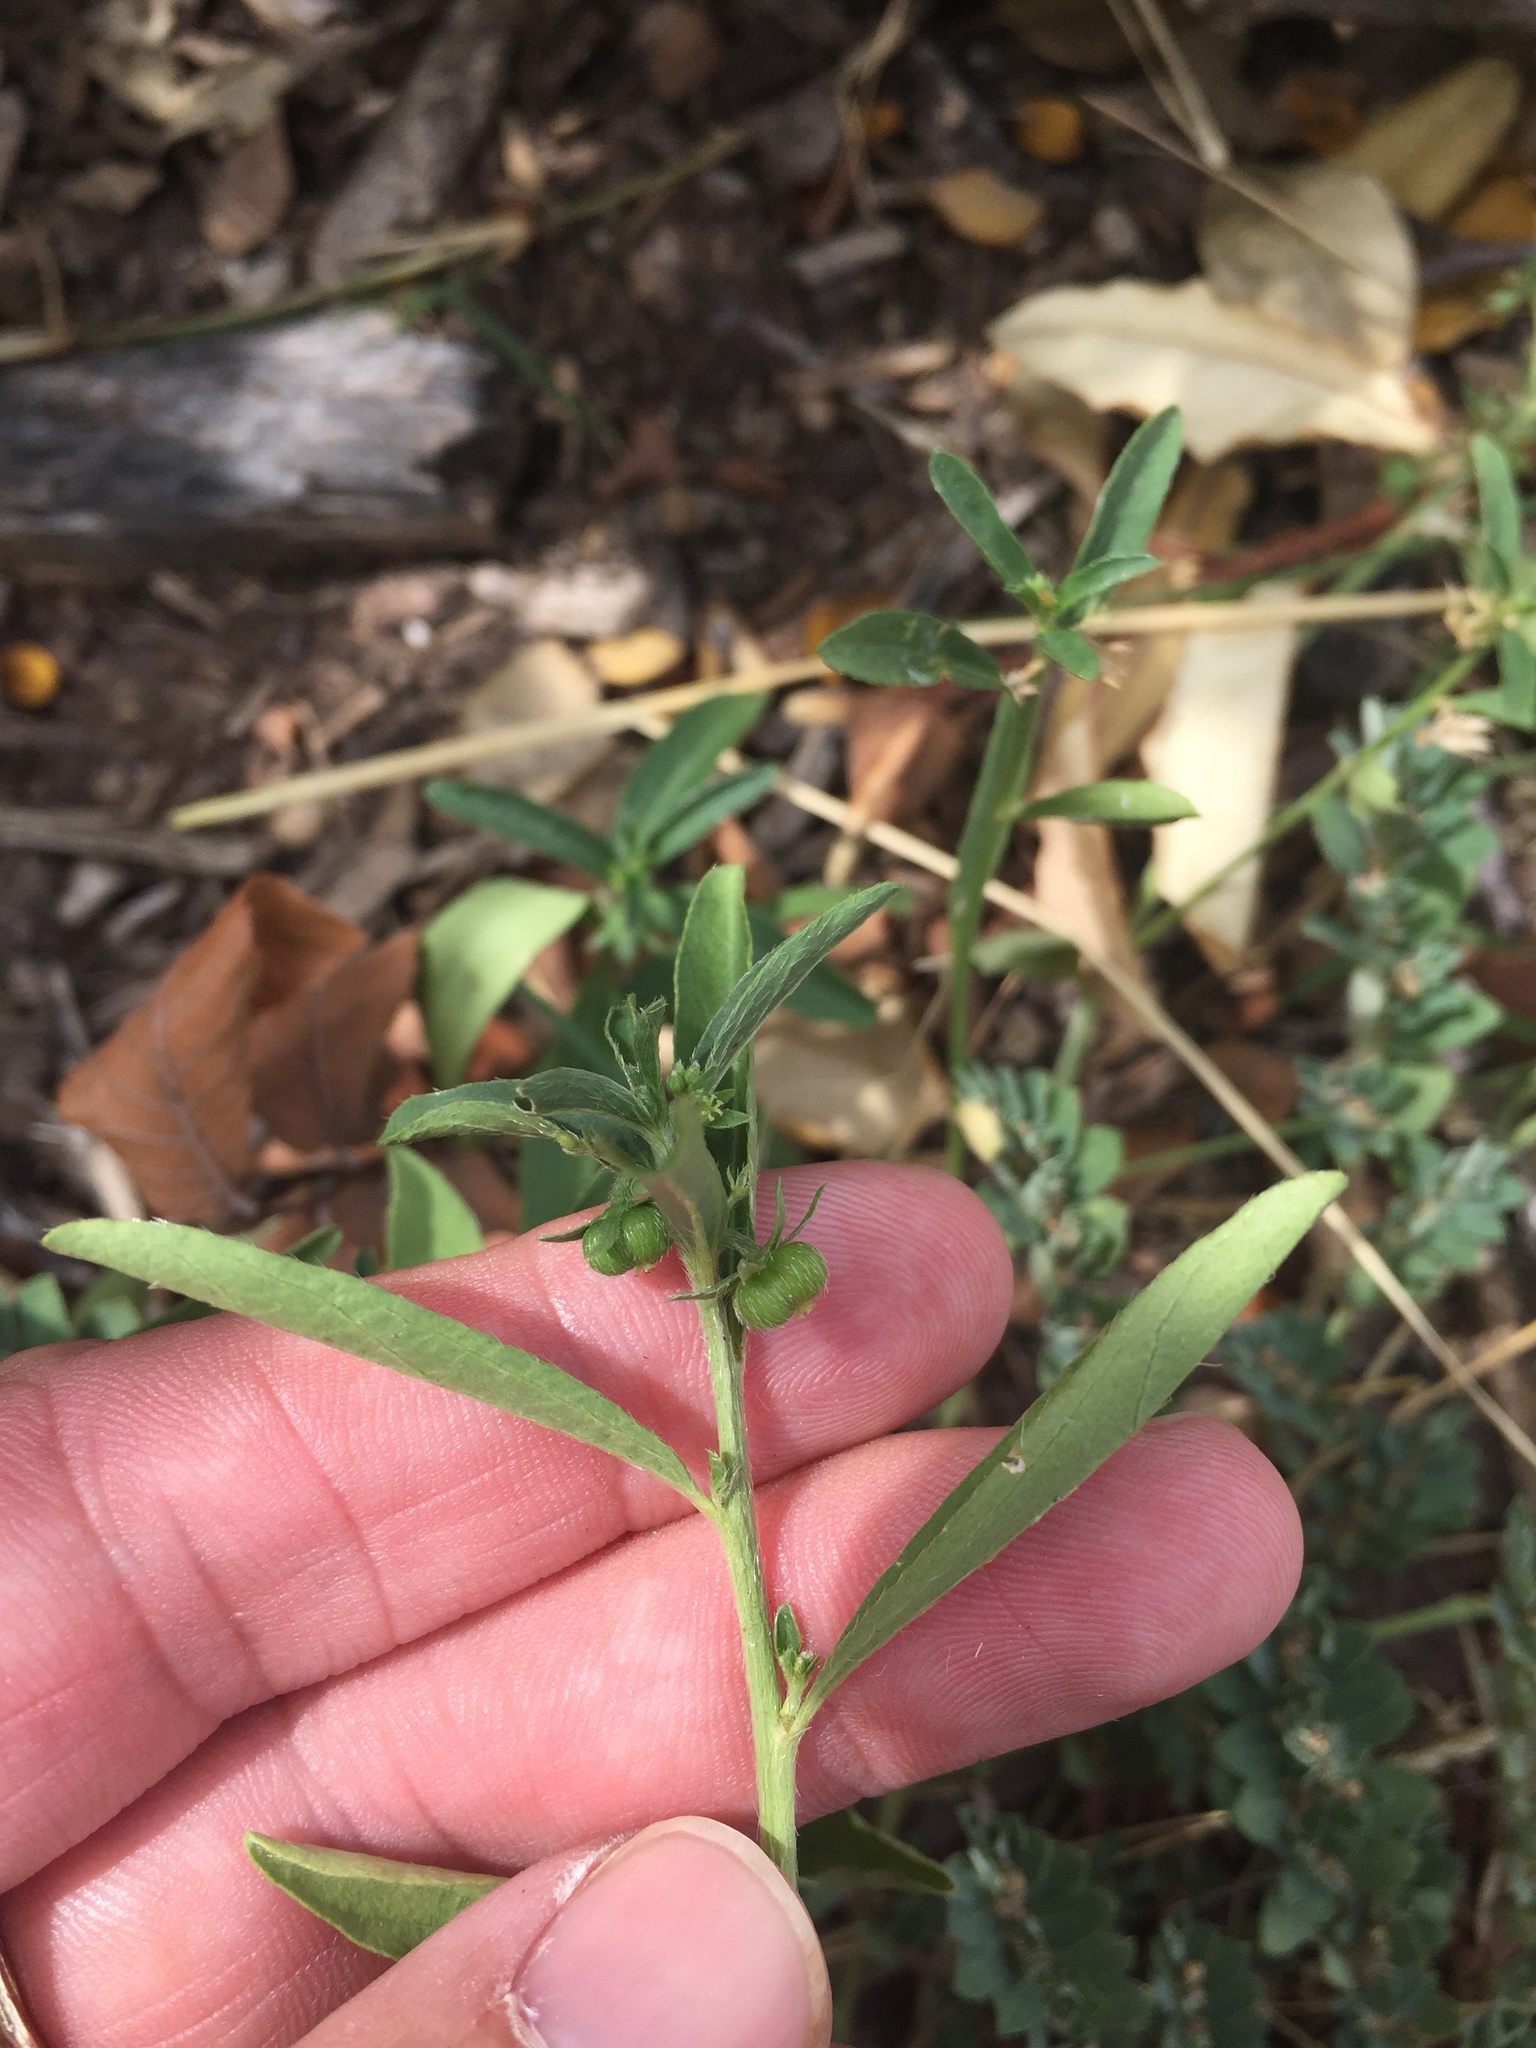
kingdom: Plantae
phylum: Tracheophyta
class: Magnoliopsida
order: Malpighiales
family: Euphorbiaceae
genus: Ditaxis
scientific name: Ditaxis humilis
